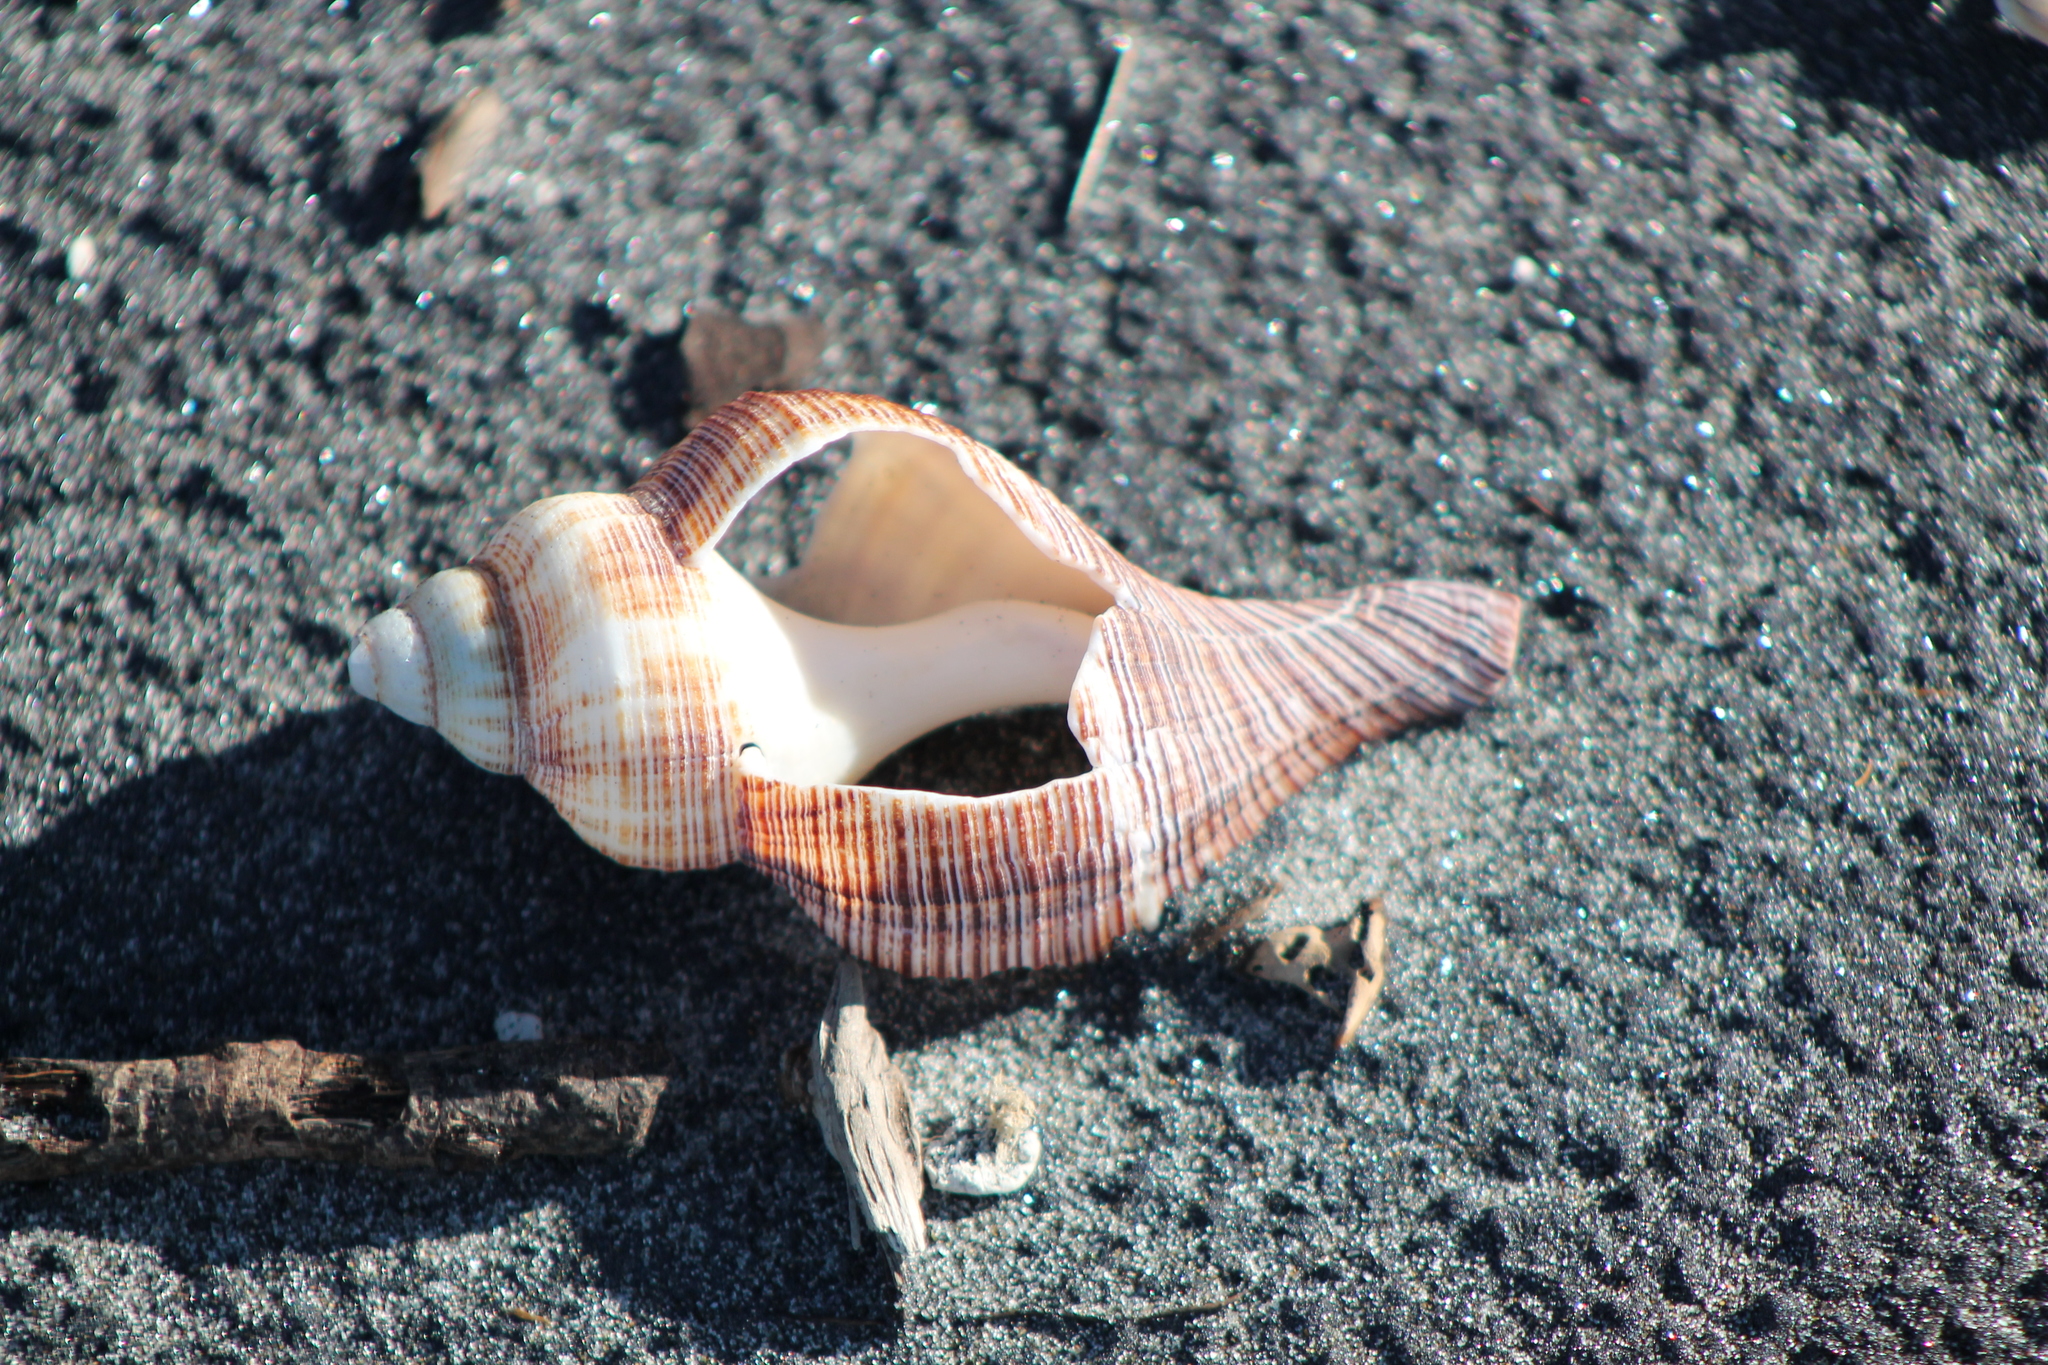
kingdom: Animalia
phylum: Mollusca
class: Gastropoda
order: Neogastropoda
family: Austrosiphonidae
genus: Penion
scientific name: Penion sulcatus
